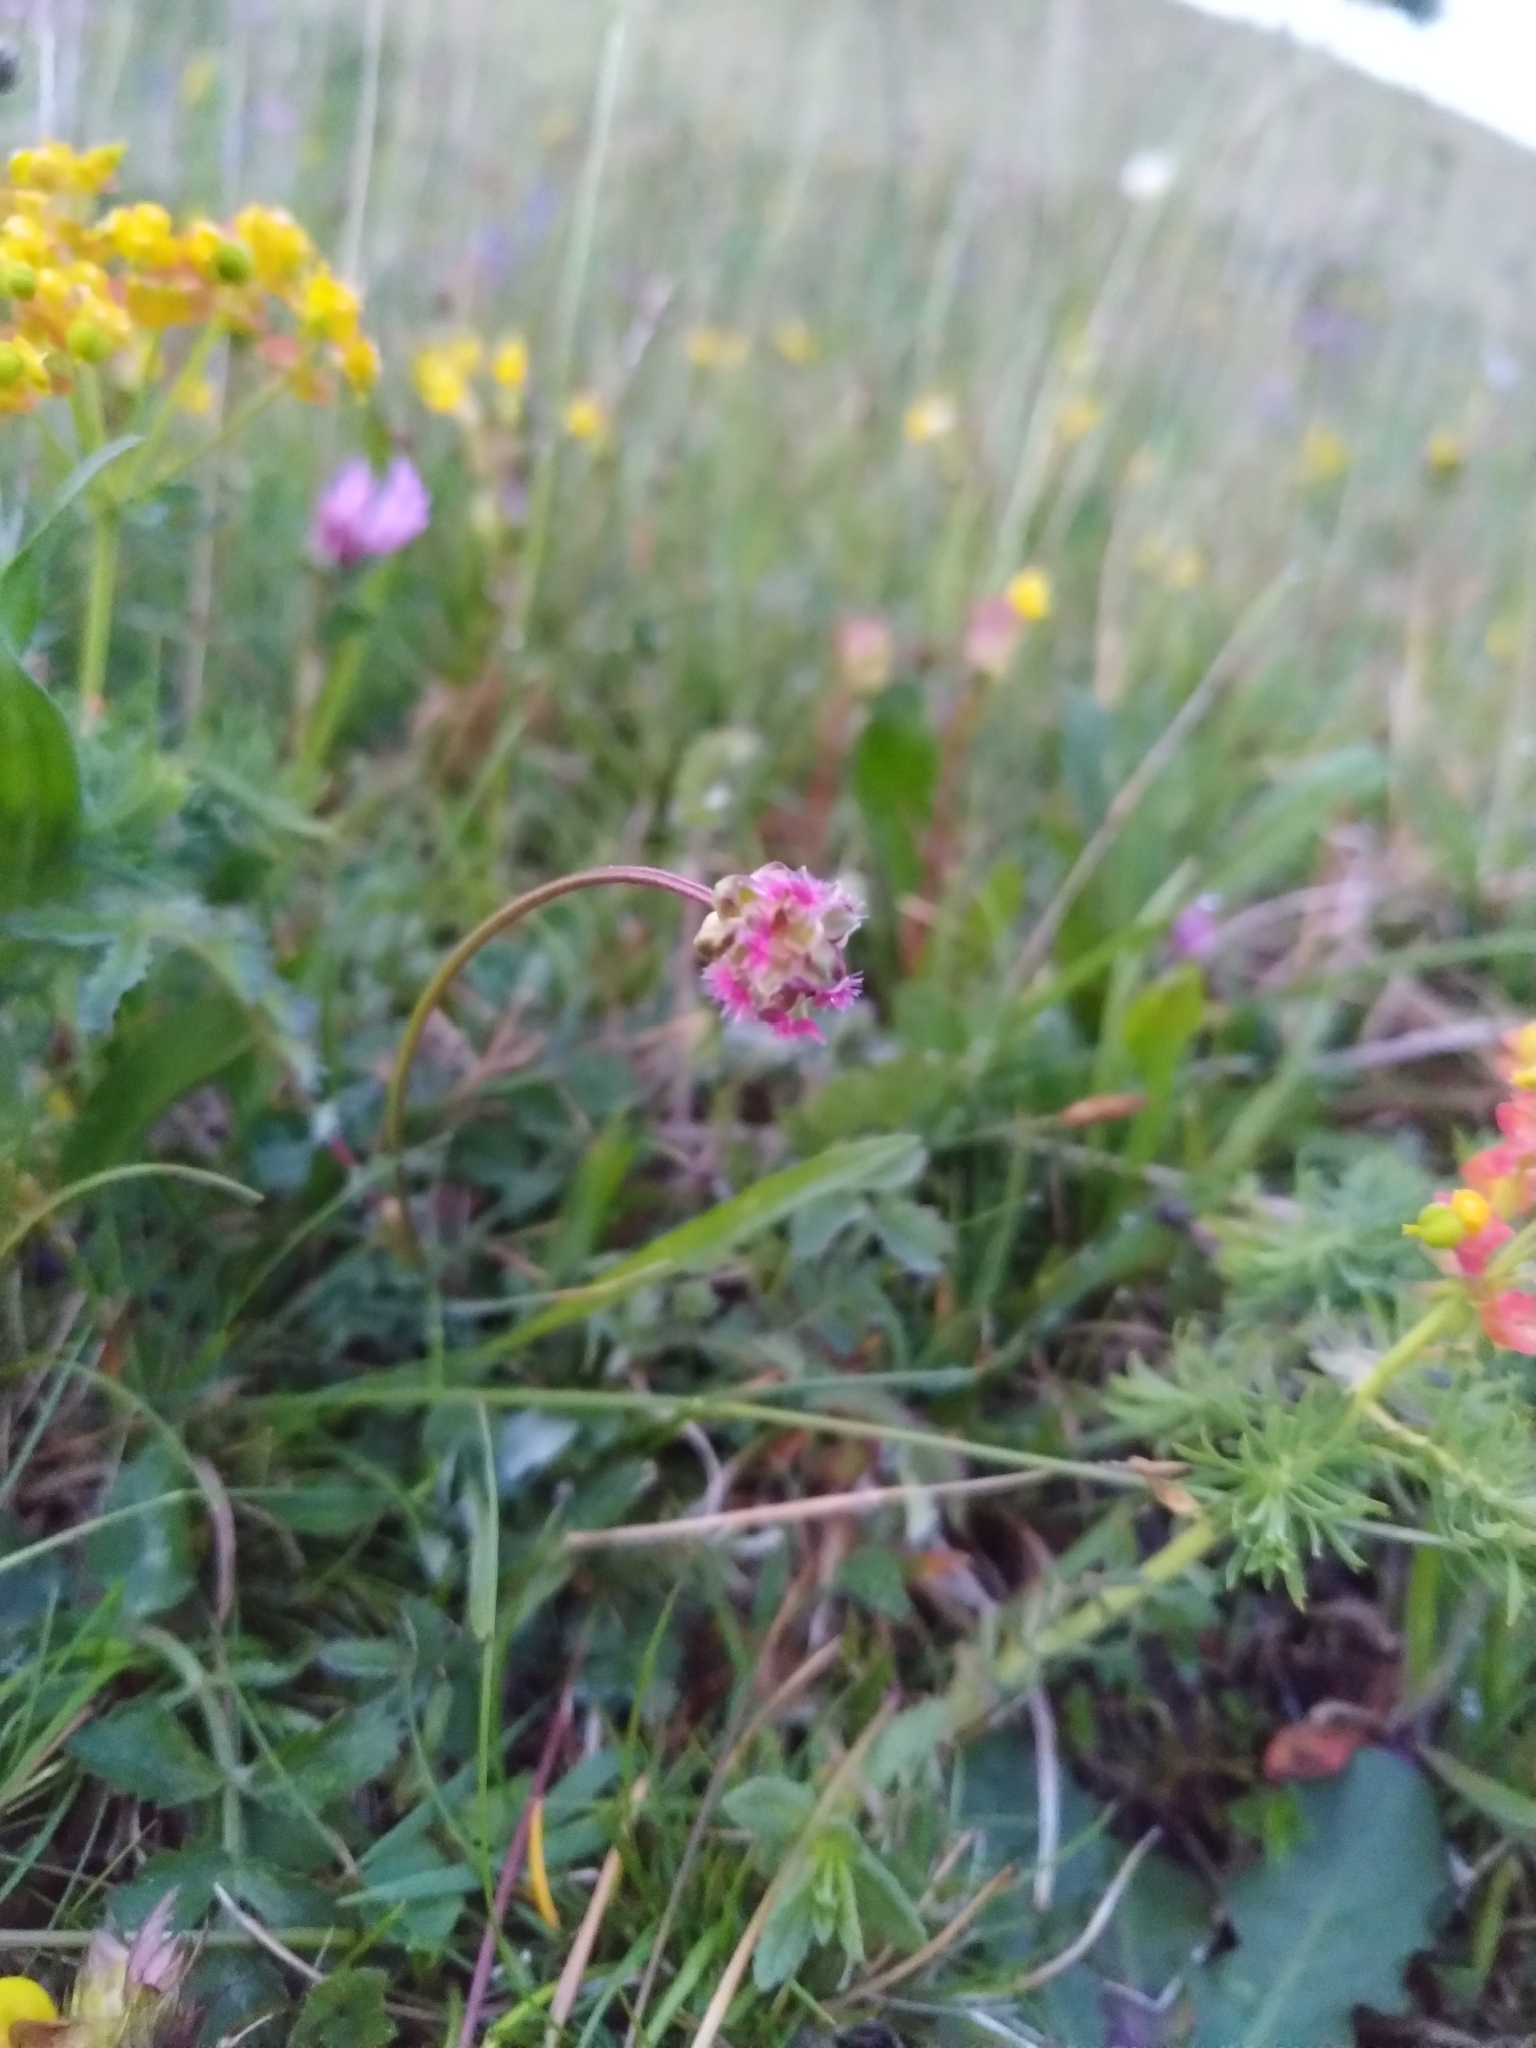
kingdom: Plantae
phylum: Tracheophyta
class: Magnoliopsida
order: Rosales
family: Rosaceae
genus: Poterium
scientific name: Poterium sanguisorba
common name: Salad burnet
